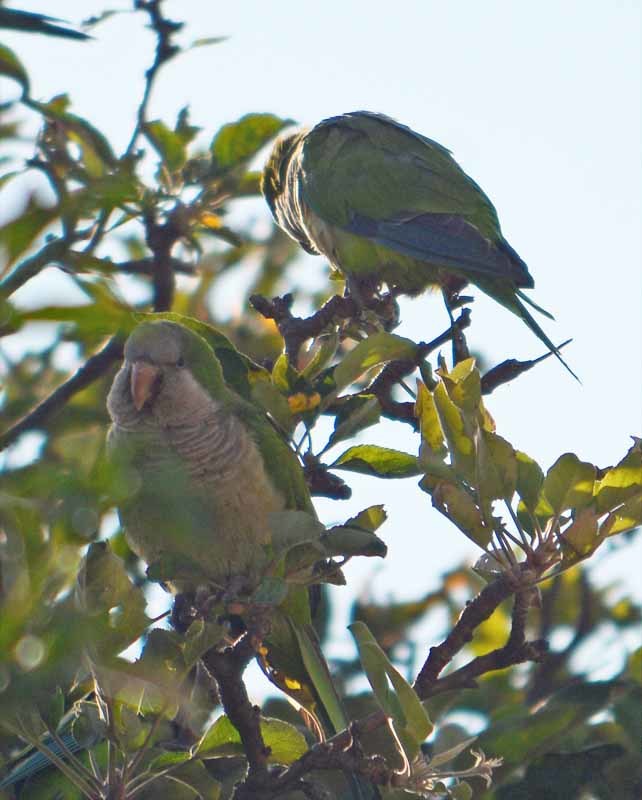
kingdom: Animalia
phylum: Chordata
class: Aves
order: Psittaciformes
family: Psittacidae
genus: Myiopsitta
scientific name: Myiopsitta monachus
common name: Monk parakeet
